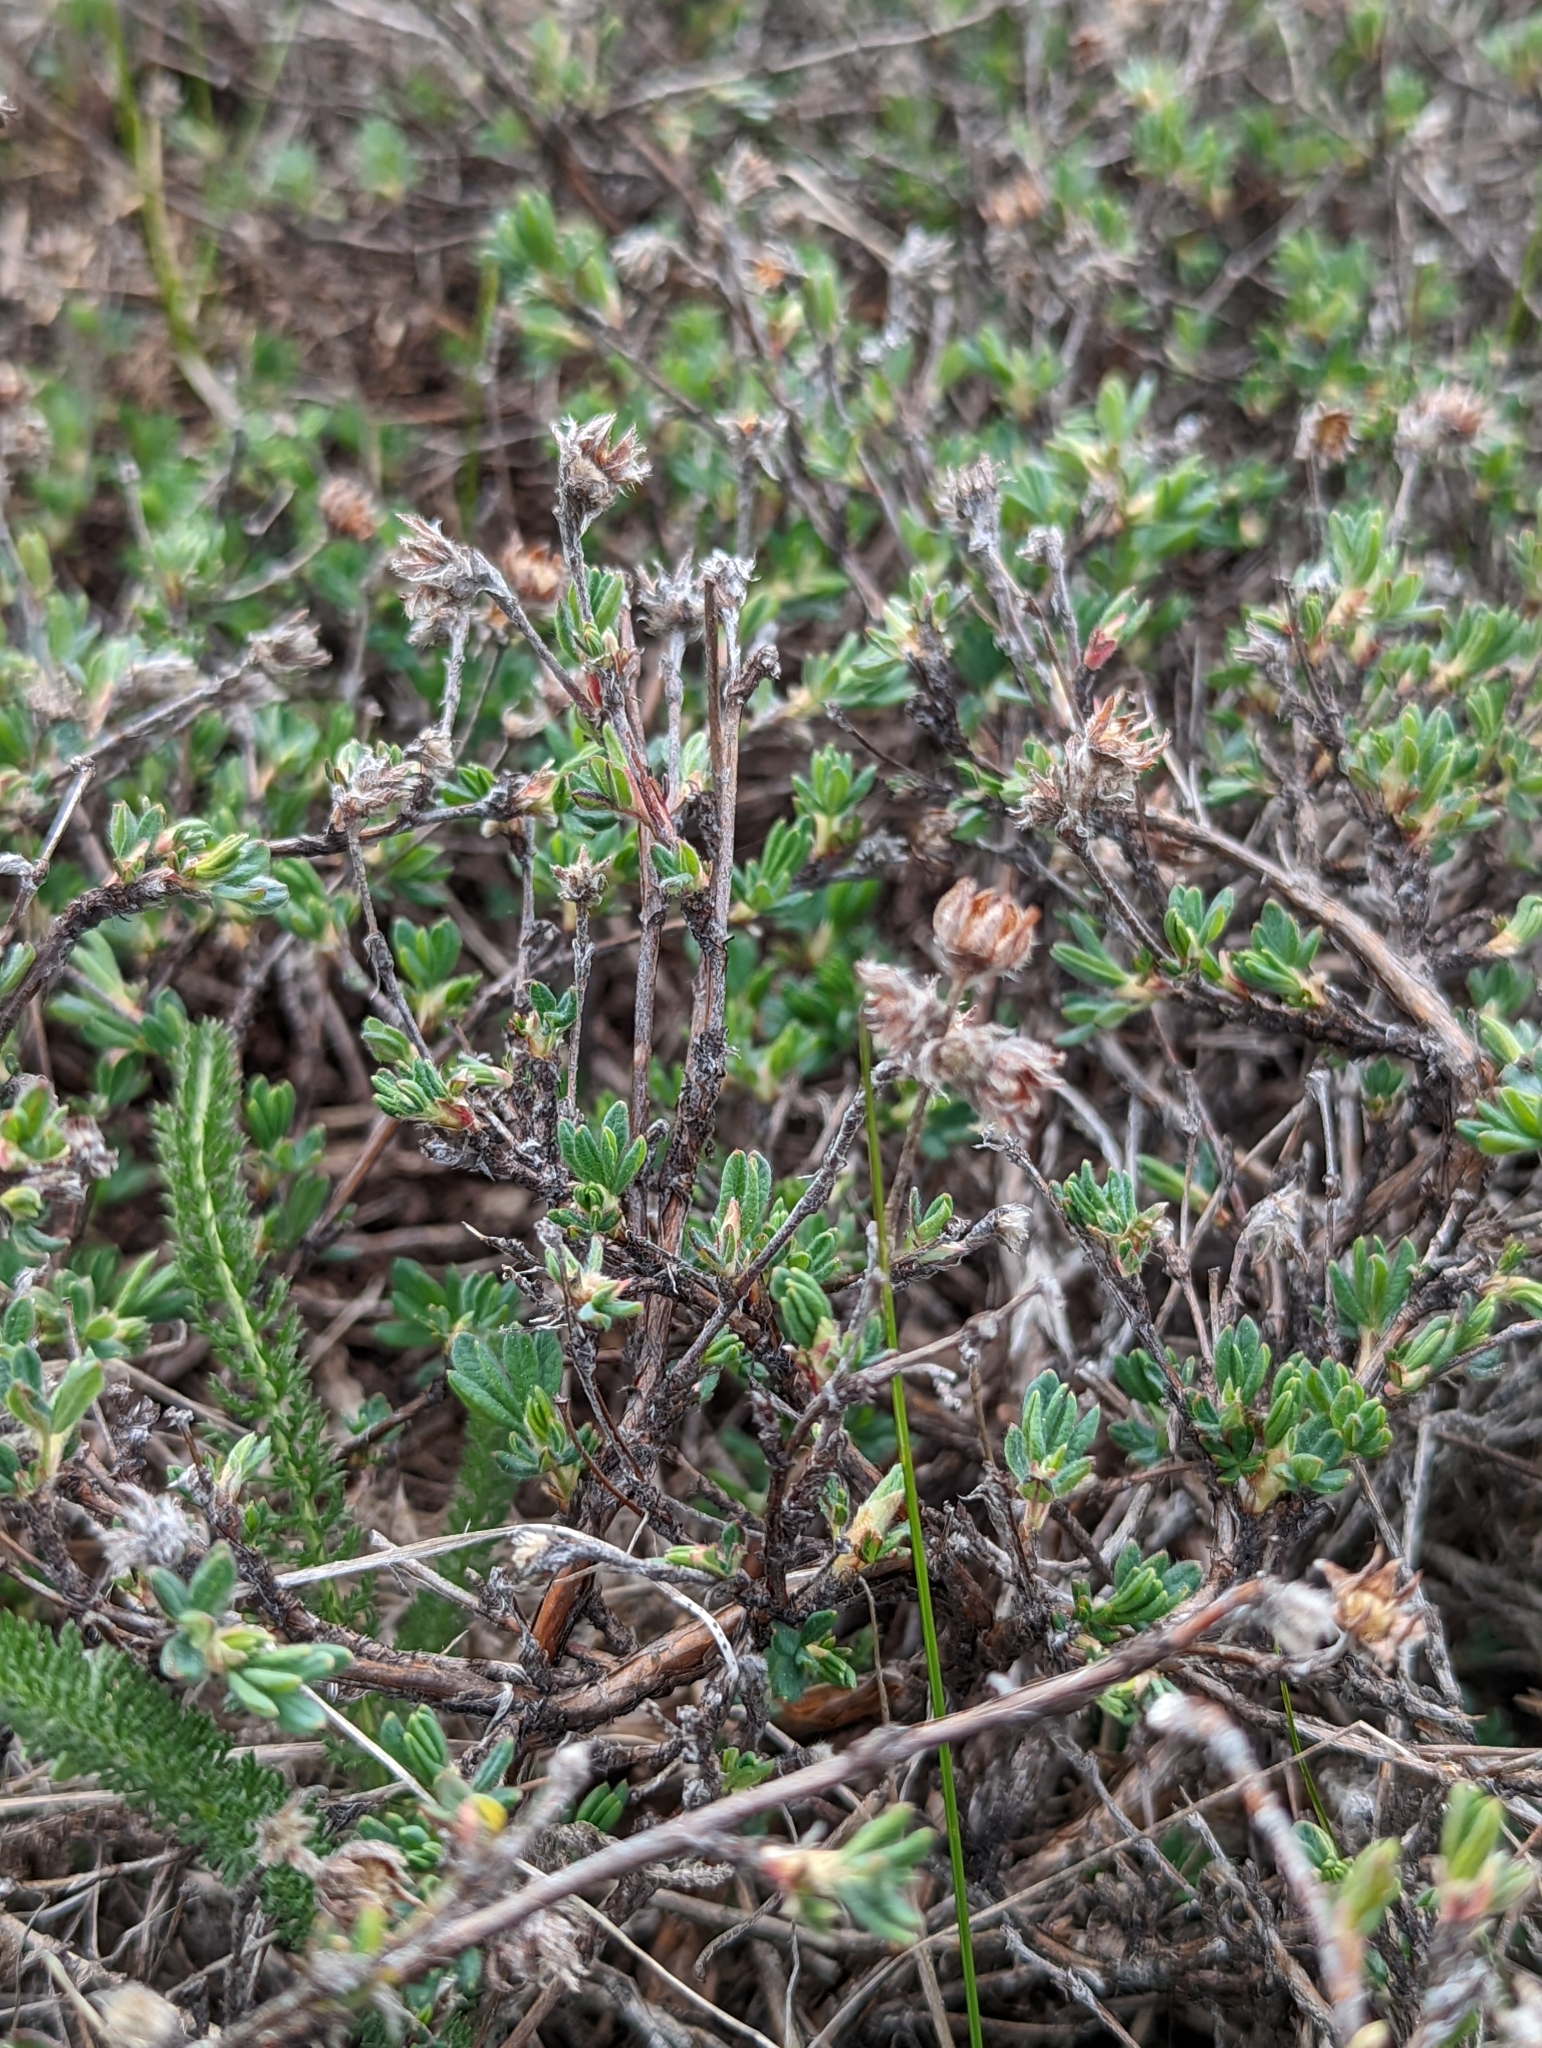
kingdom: Plantae
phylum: Tracheophyta
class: Magnoliopsida
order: Rosales
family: Rosaceae
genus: Dasiphora
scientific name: Dasiphora fruticosa
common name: Shrubby cinquefoil
